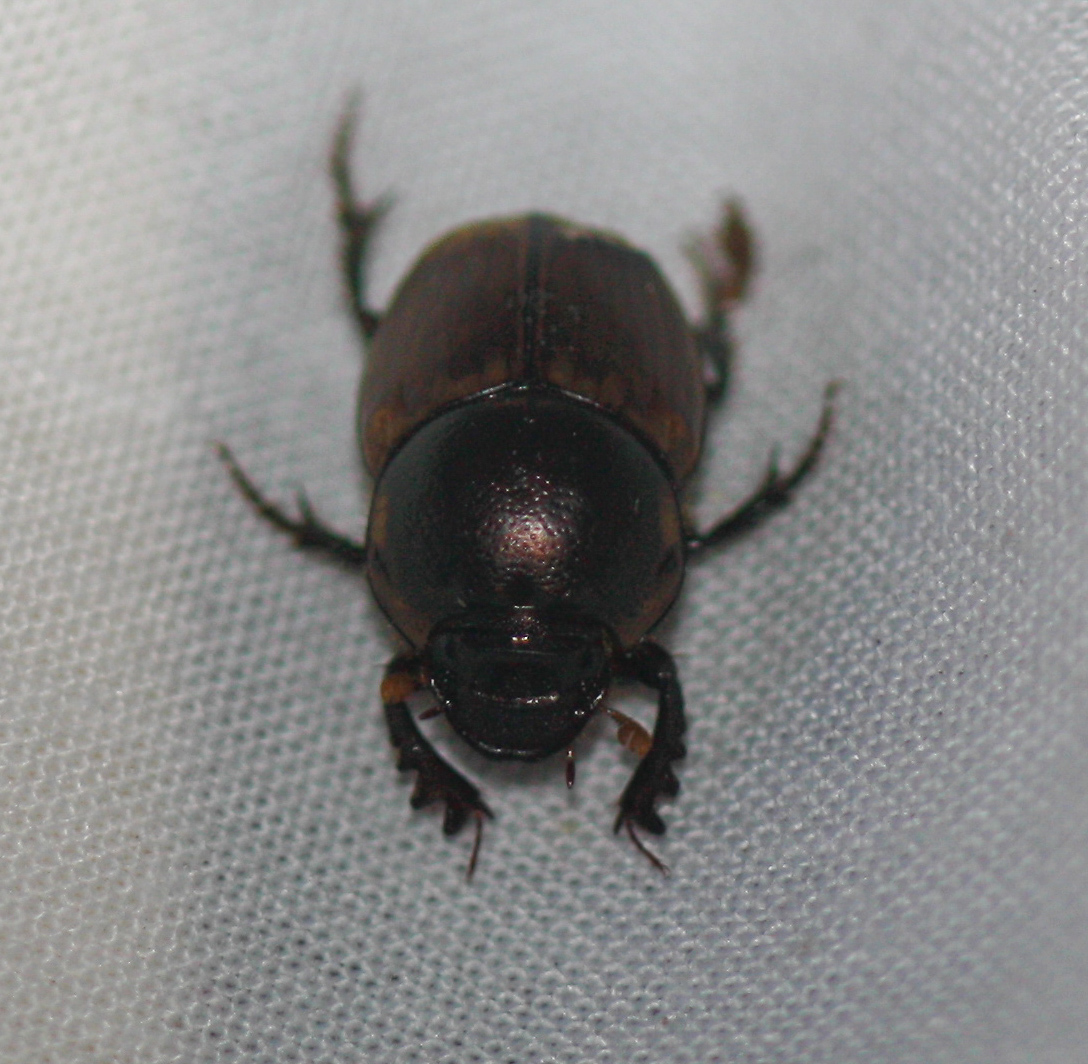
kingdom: Animalia
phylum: Arthropoda
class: Insecta
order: Coleoptera
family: Scarabaeidae
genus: Digitonthophagus
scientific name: Digitonthophagus gazella
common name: Brown dung beetle
